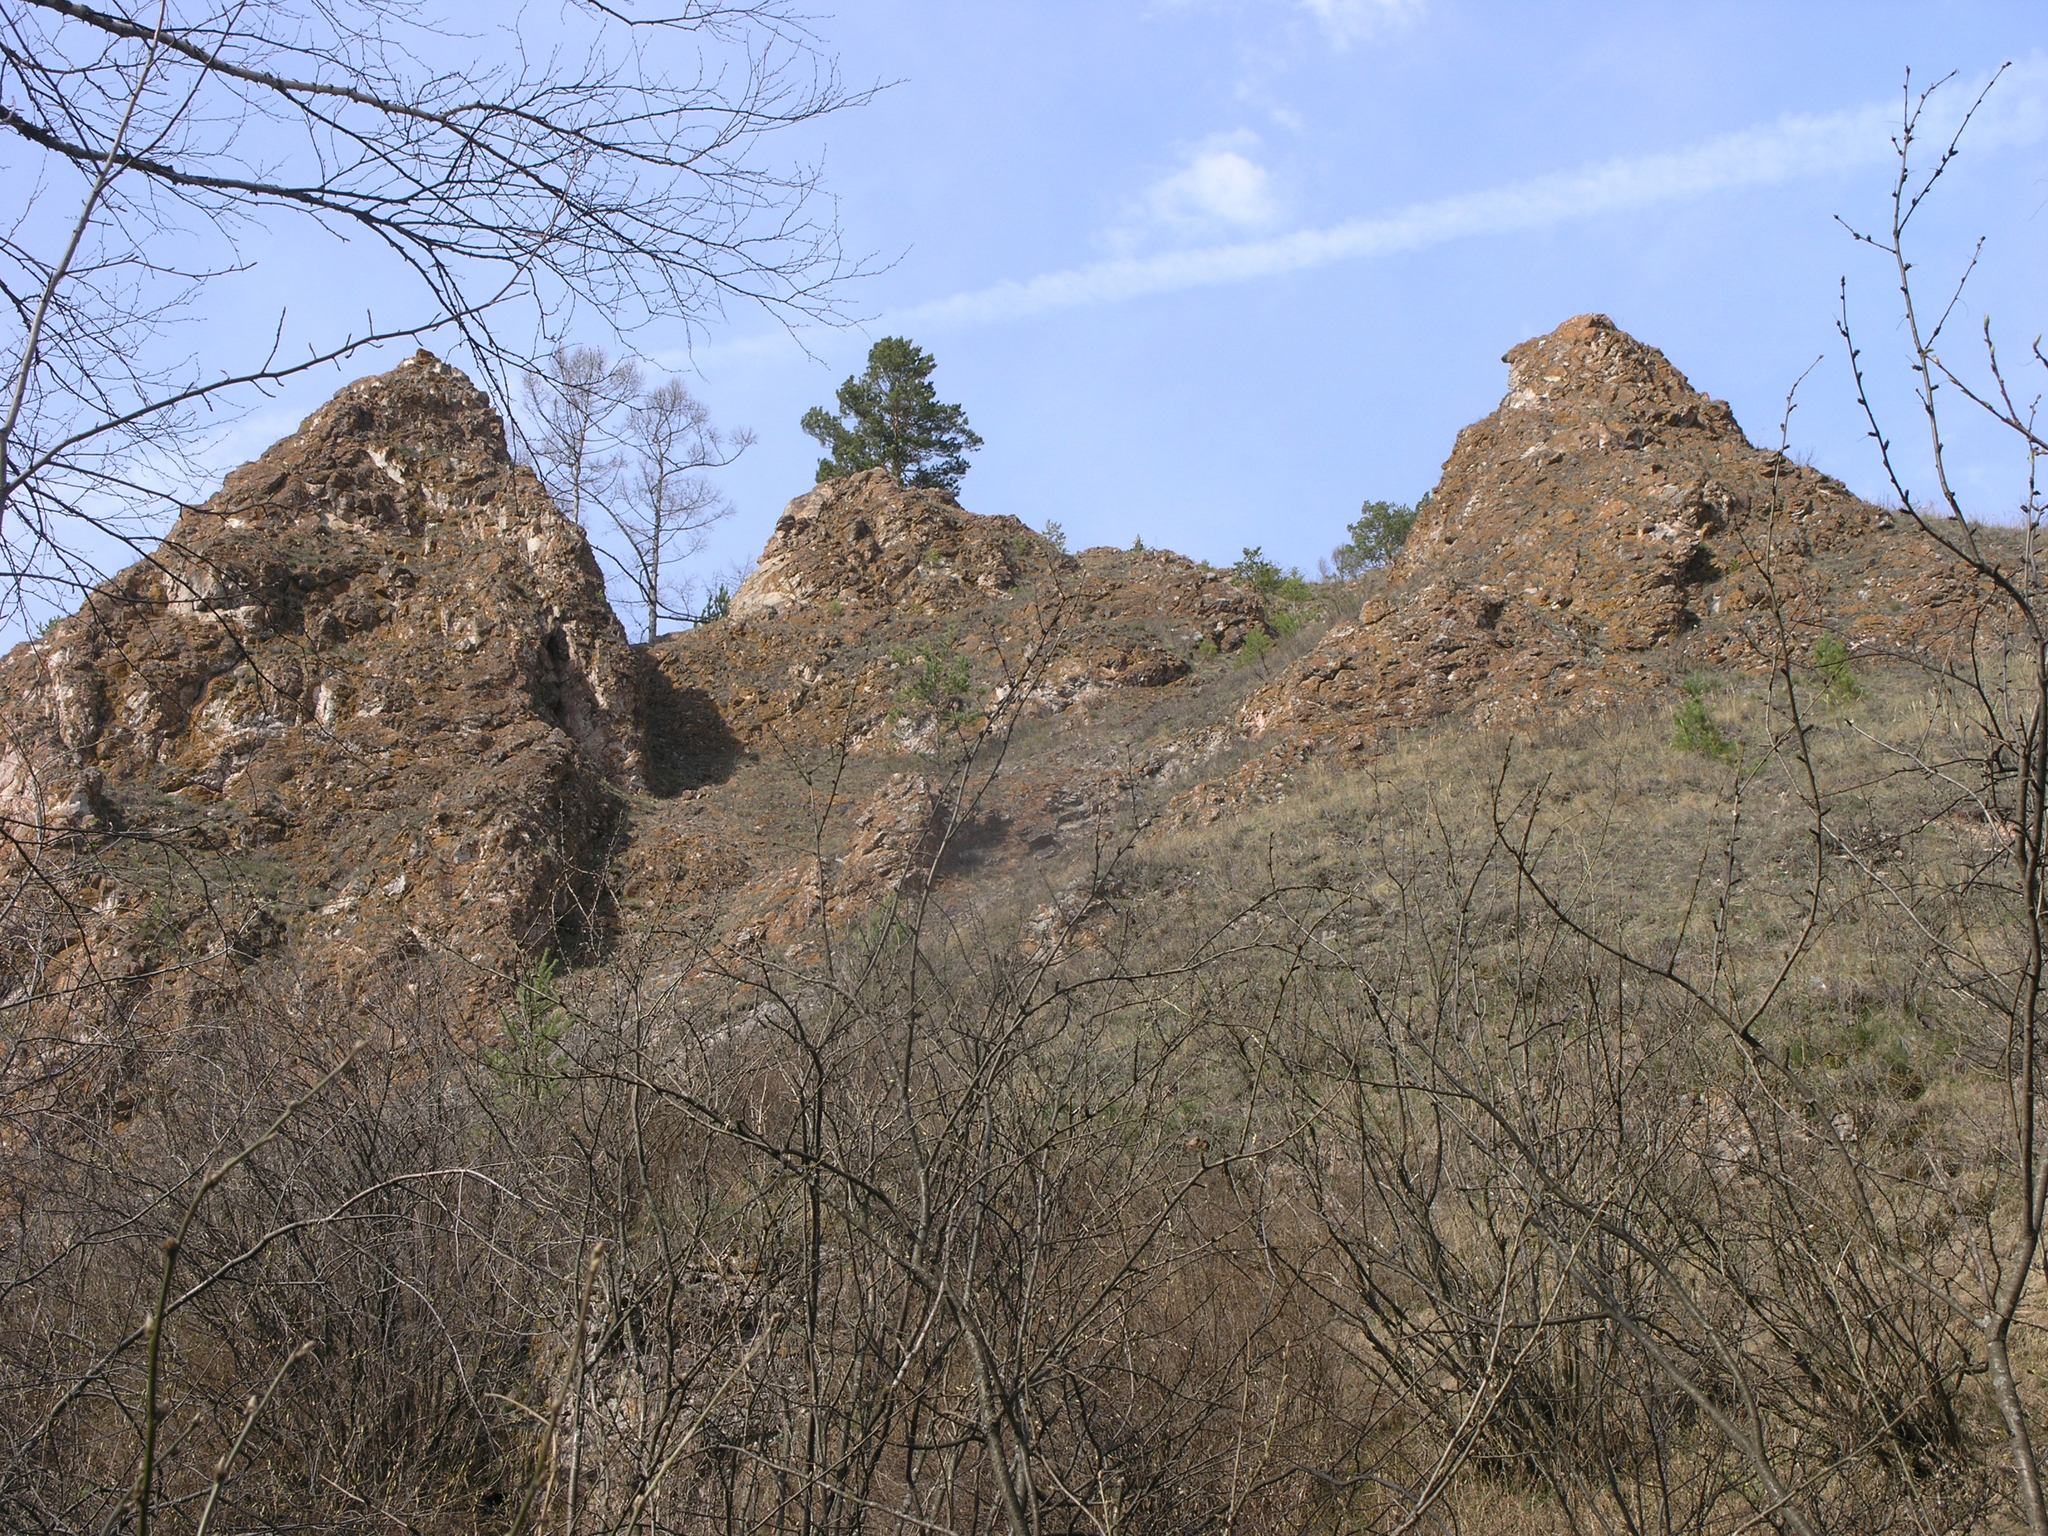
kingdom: Plantae
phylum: Tracheophyta
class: Magnoliopsida
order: Fabales
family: Fabaceae
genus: Caragana
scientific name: Caragana arborescens
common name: Siberian peashrub
